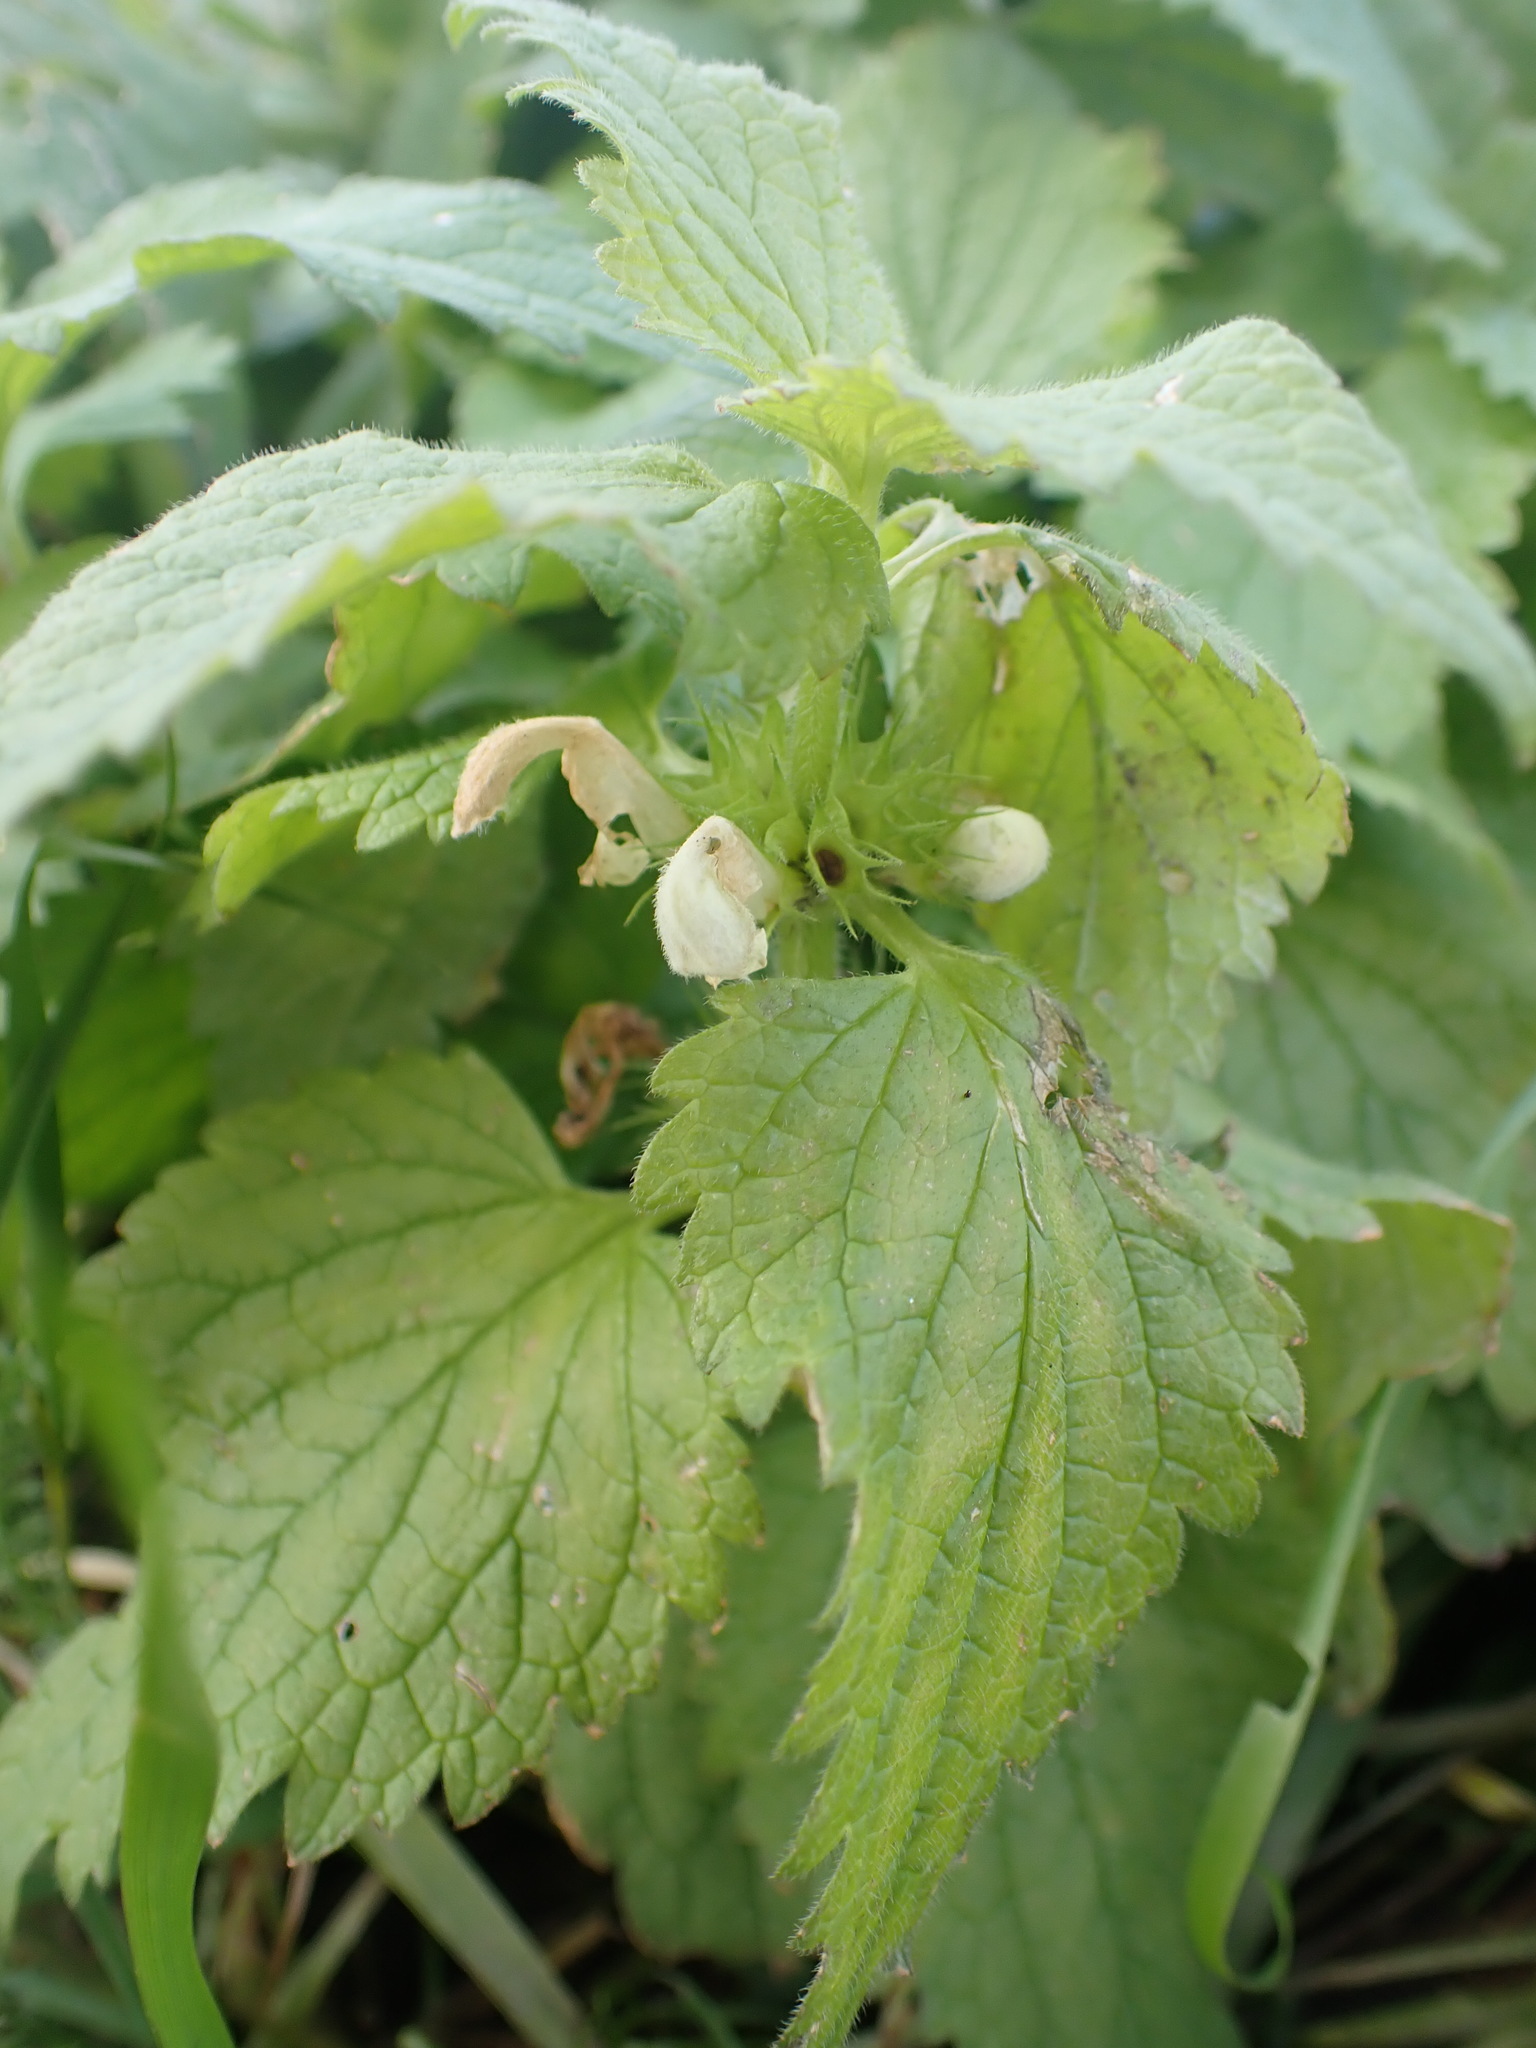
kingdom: Plantae
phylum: Tracheophyta
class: Magnoliopsida
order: Lamiales
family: Lamiaceae
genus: Lamium
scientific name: Lamium album
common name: White dead-nettle
